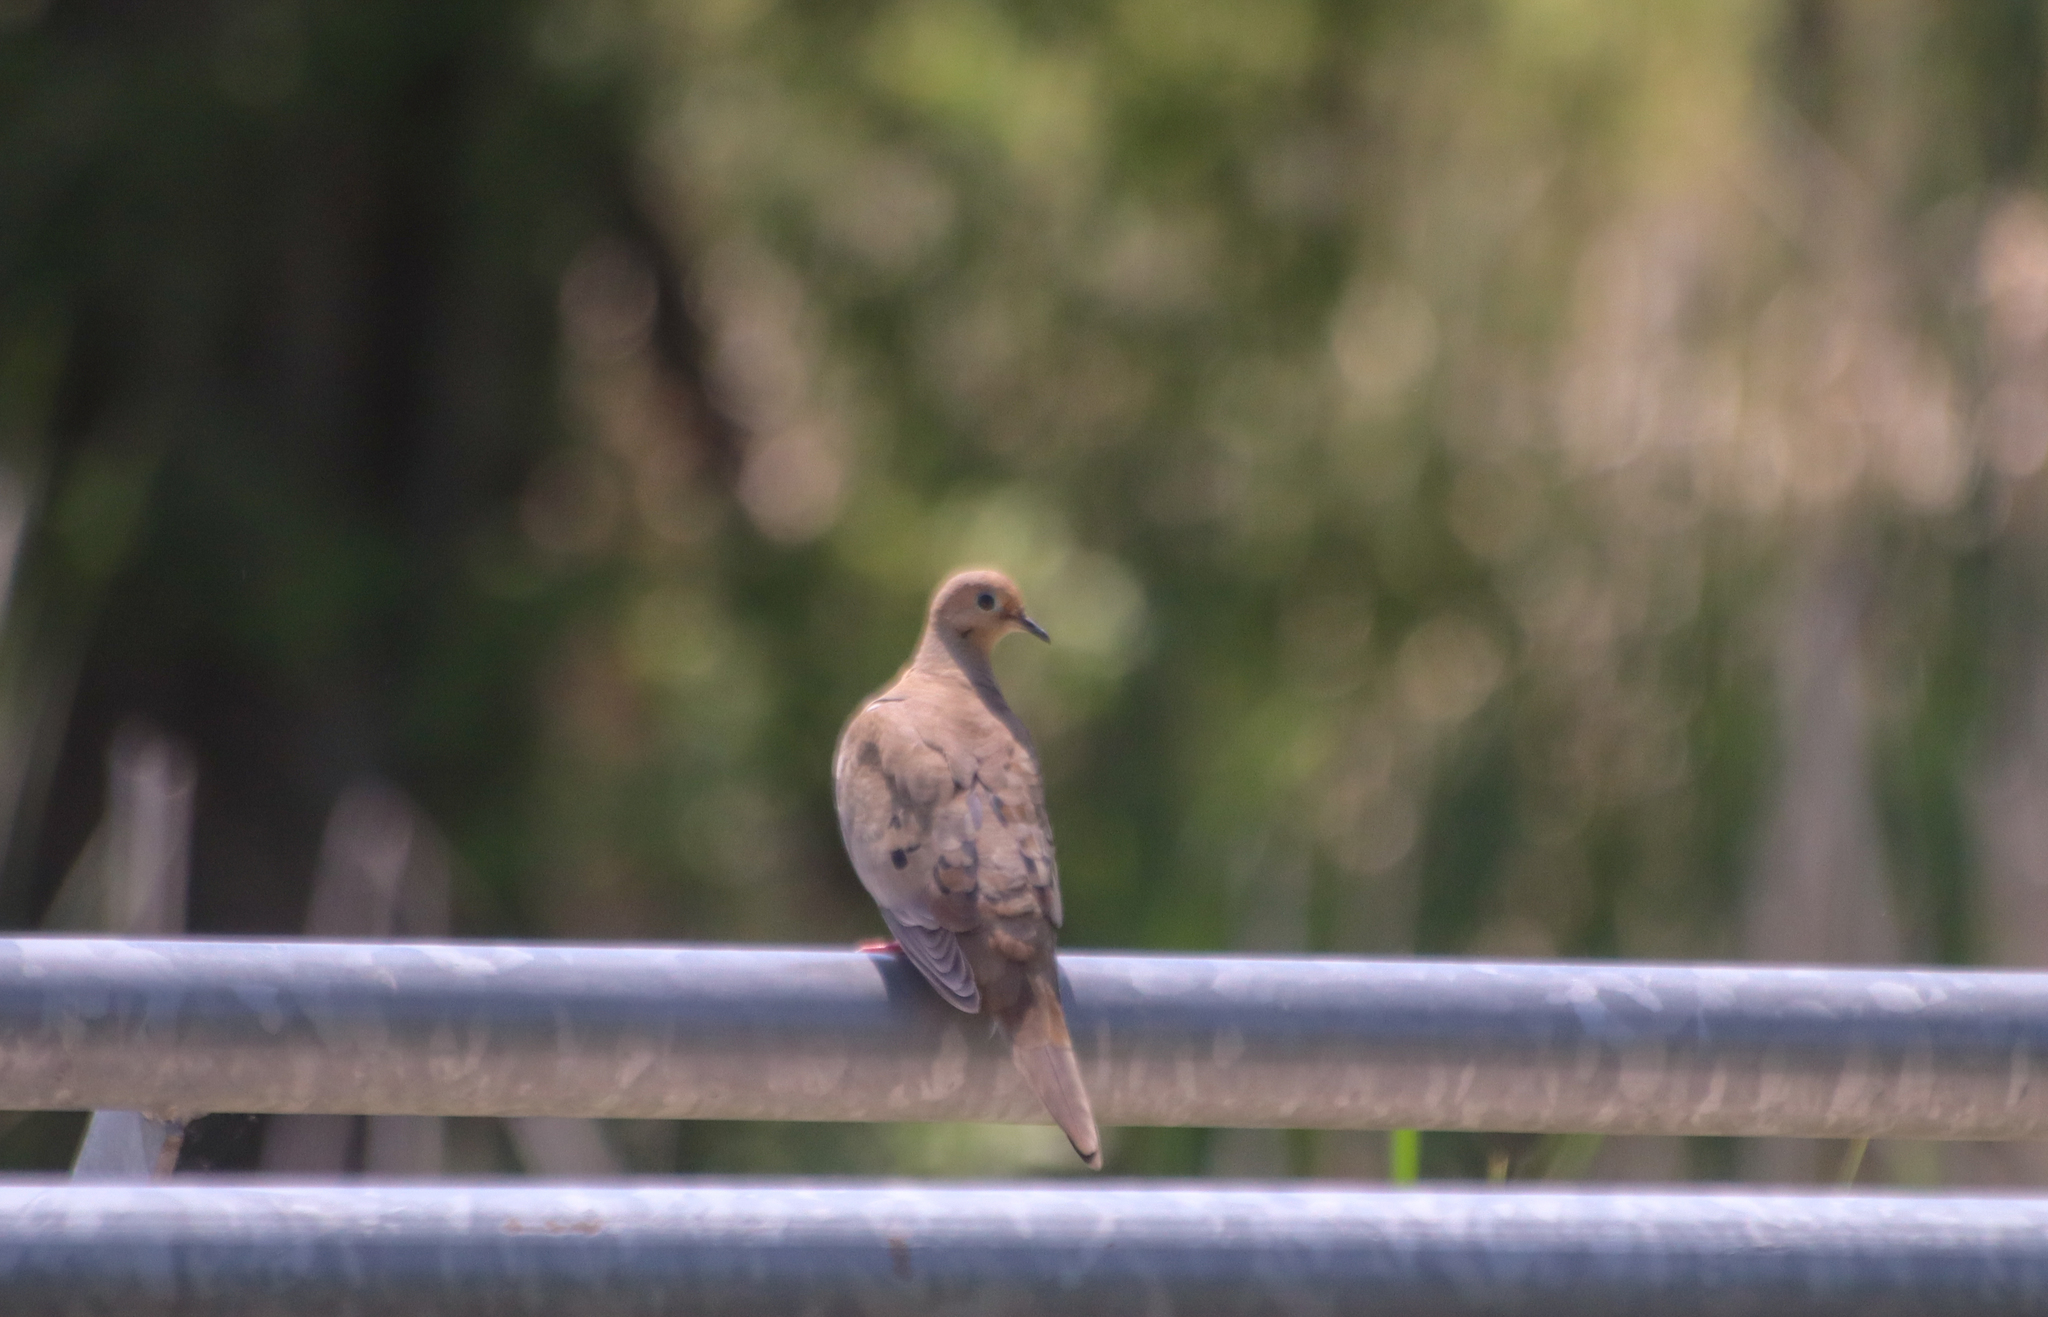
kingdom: Animalia
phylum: Chordata
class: Aves
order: Columbiformes
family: Columbidae
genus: Zenaida
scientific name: Zenaida macroura
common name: Mourning dove
